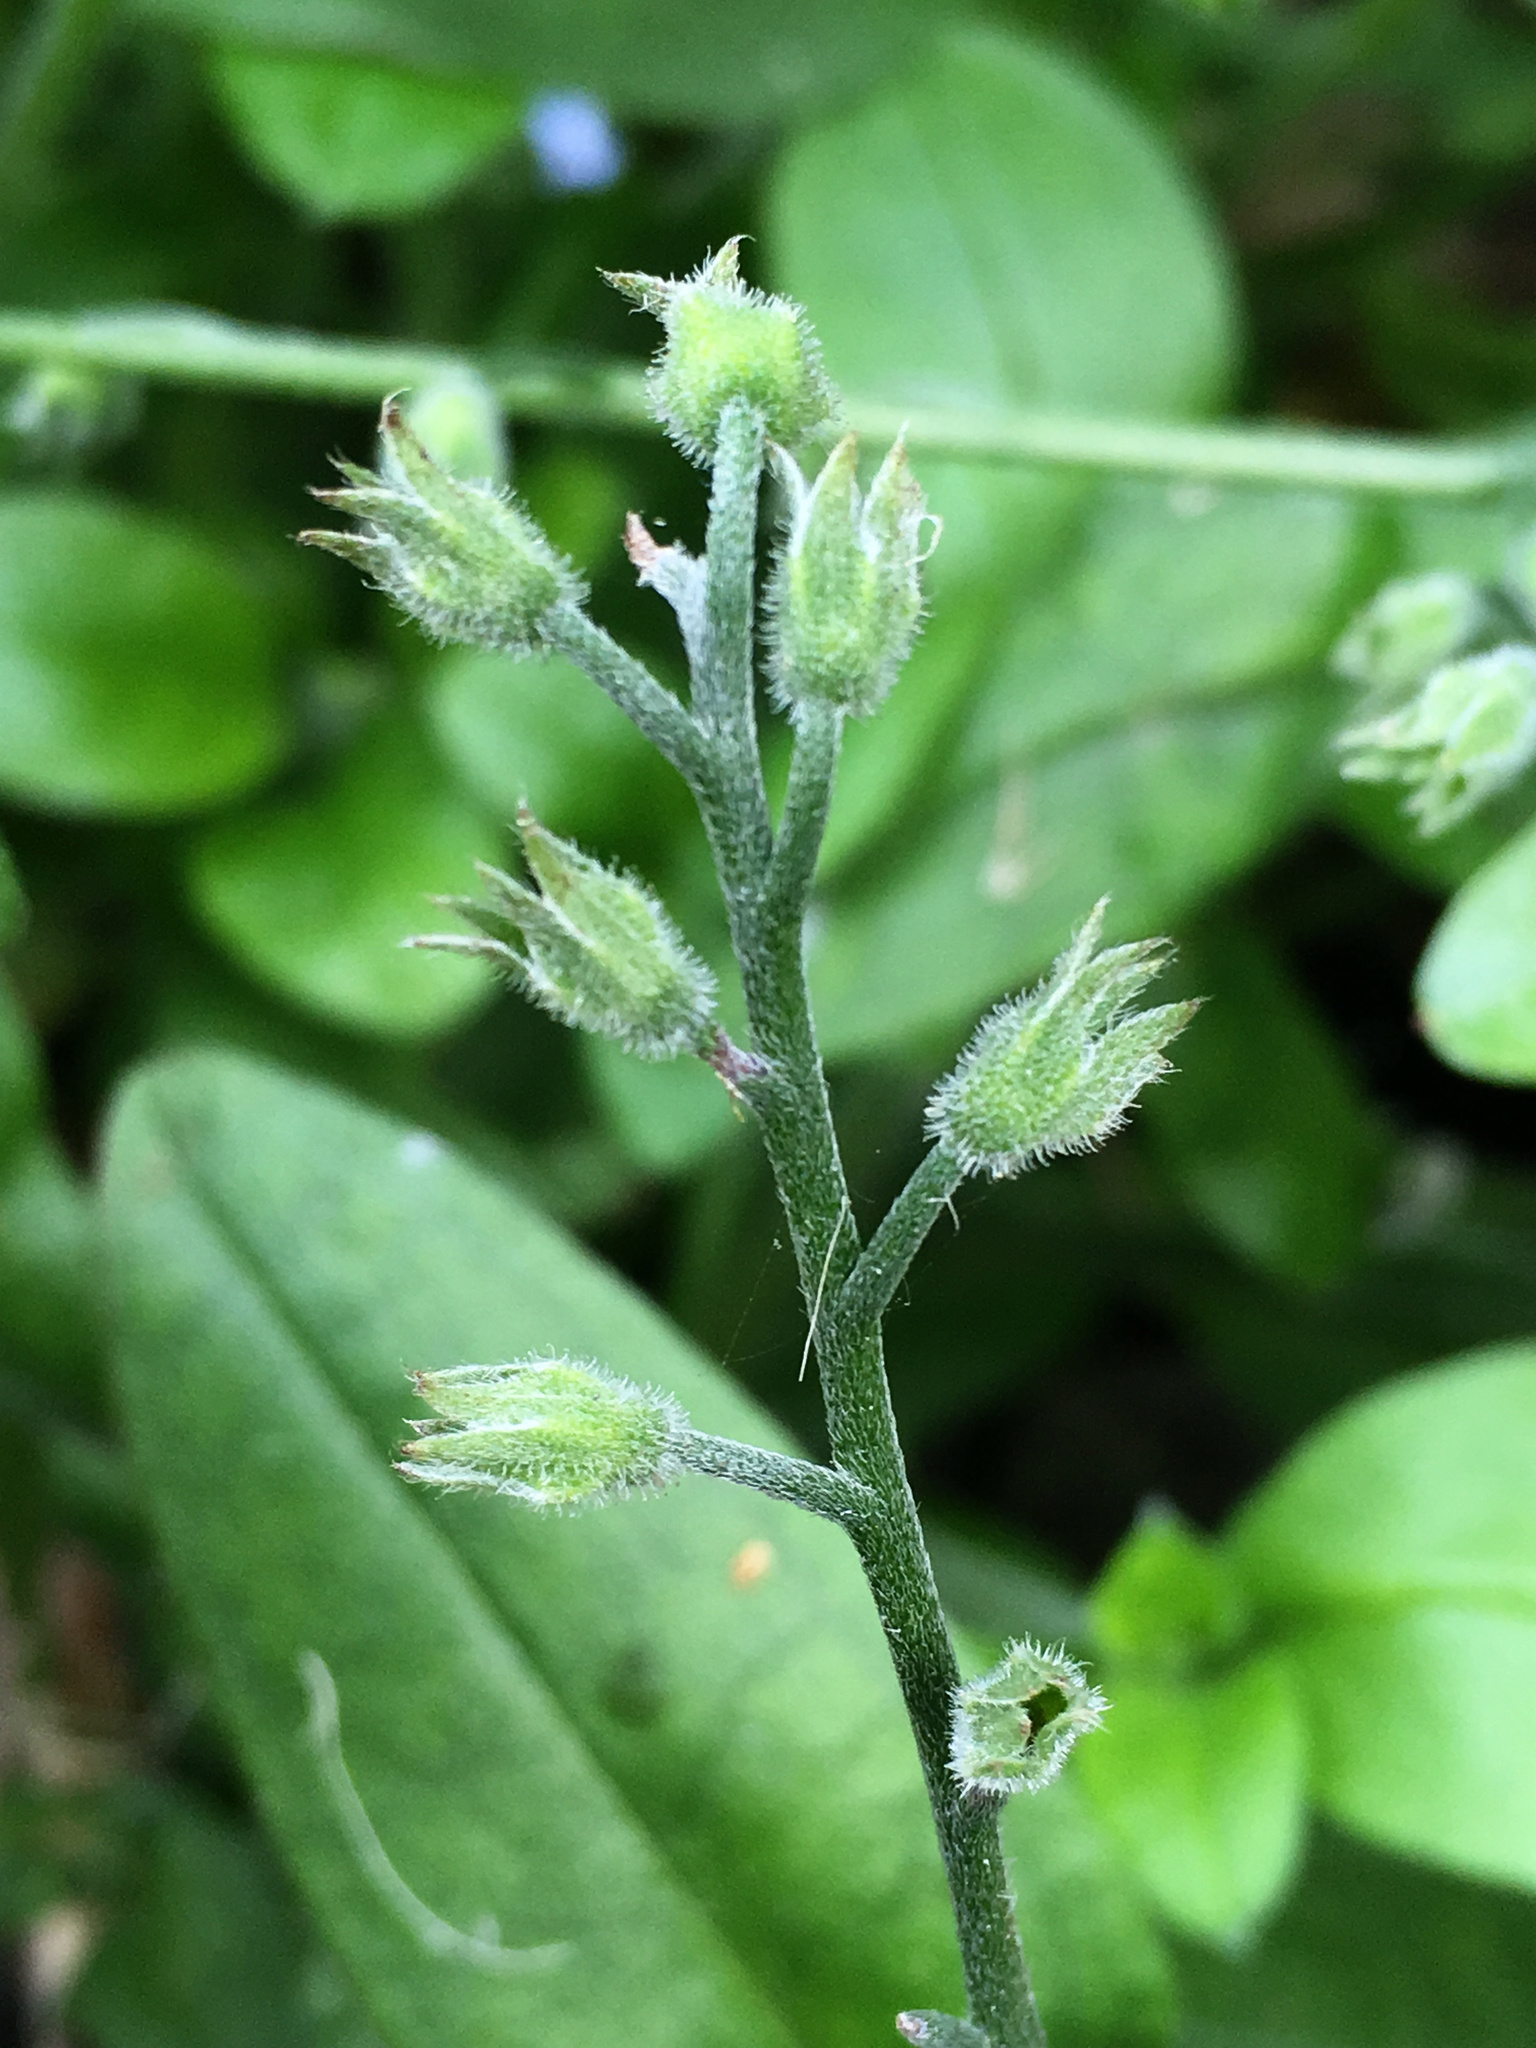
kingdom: Plantae
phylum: Tracheophyta
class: Magnoliopsida
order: Boraginales
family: Boraginaceae
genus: Myosotis
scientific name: Myosotis sylvatica
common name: Wood forget-me-not
